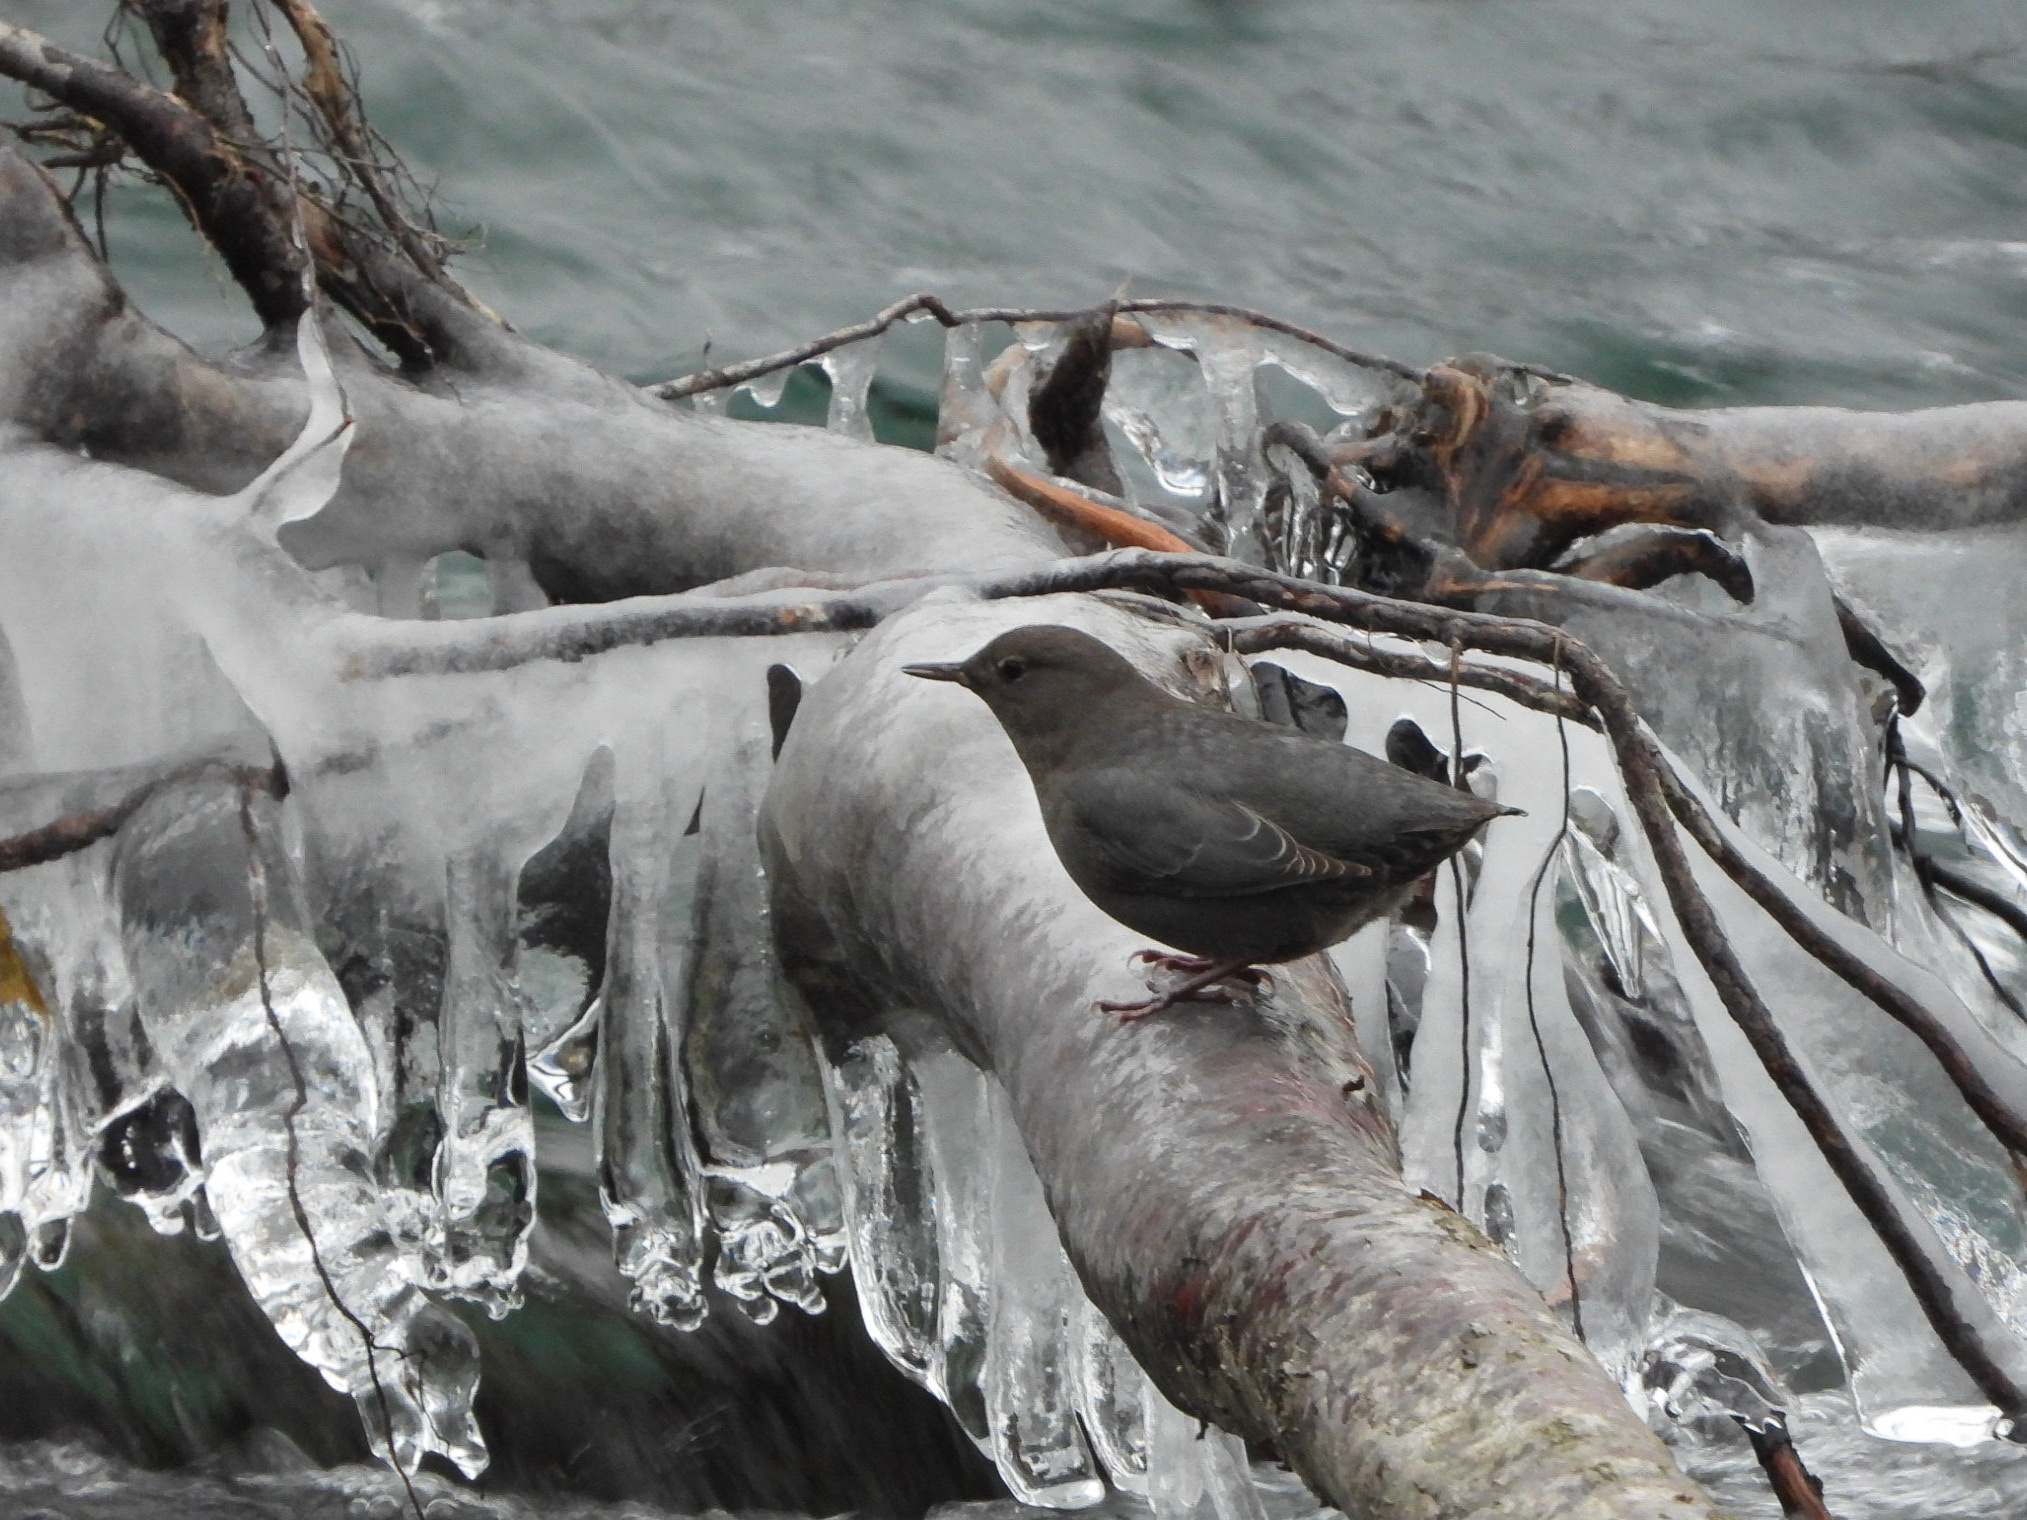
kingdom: Animalia
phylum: Chordata
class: Aves
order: Passeriformes
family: Cinclidae
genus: Cinclus
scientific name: Cinclus mexicanus
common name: American dipper
